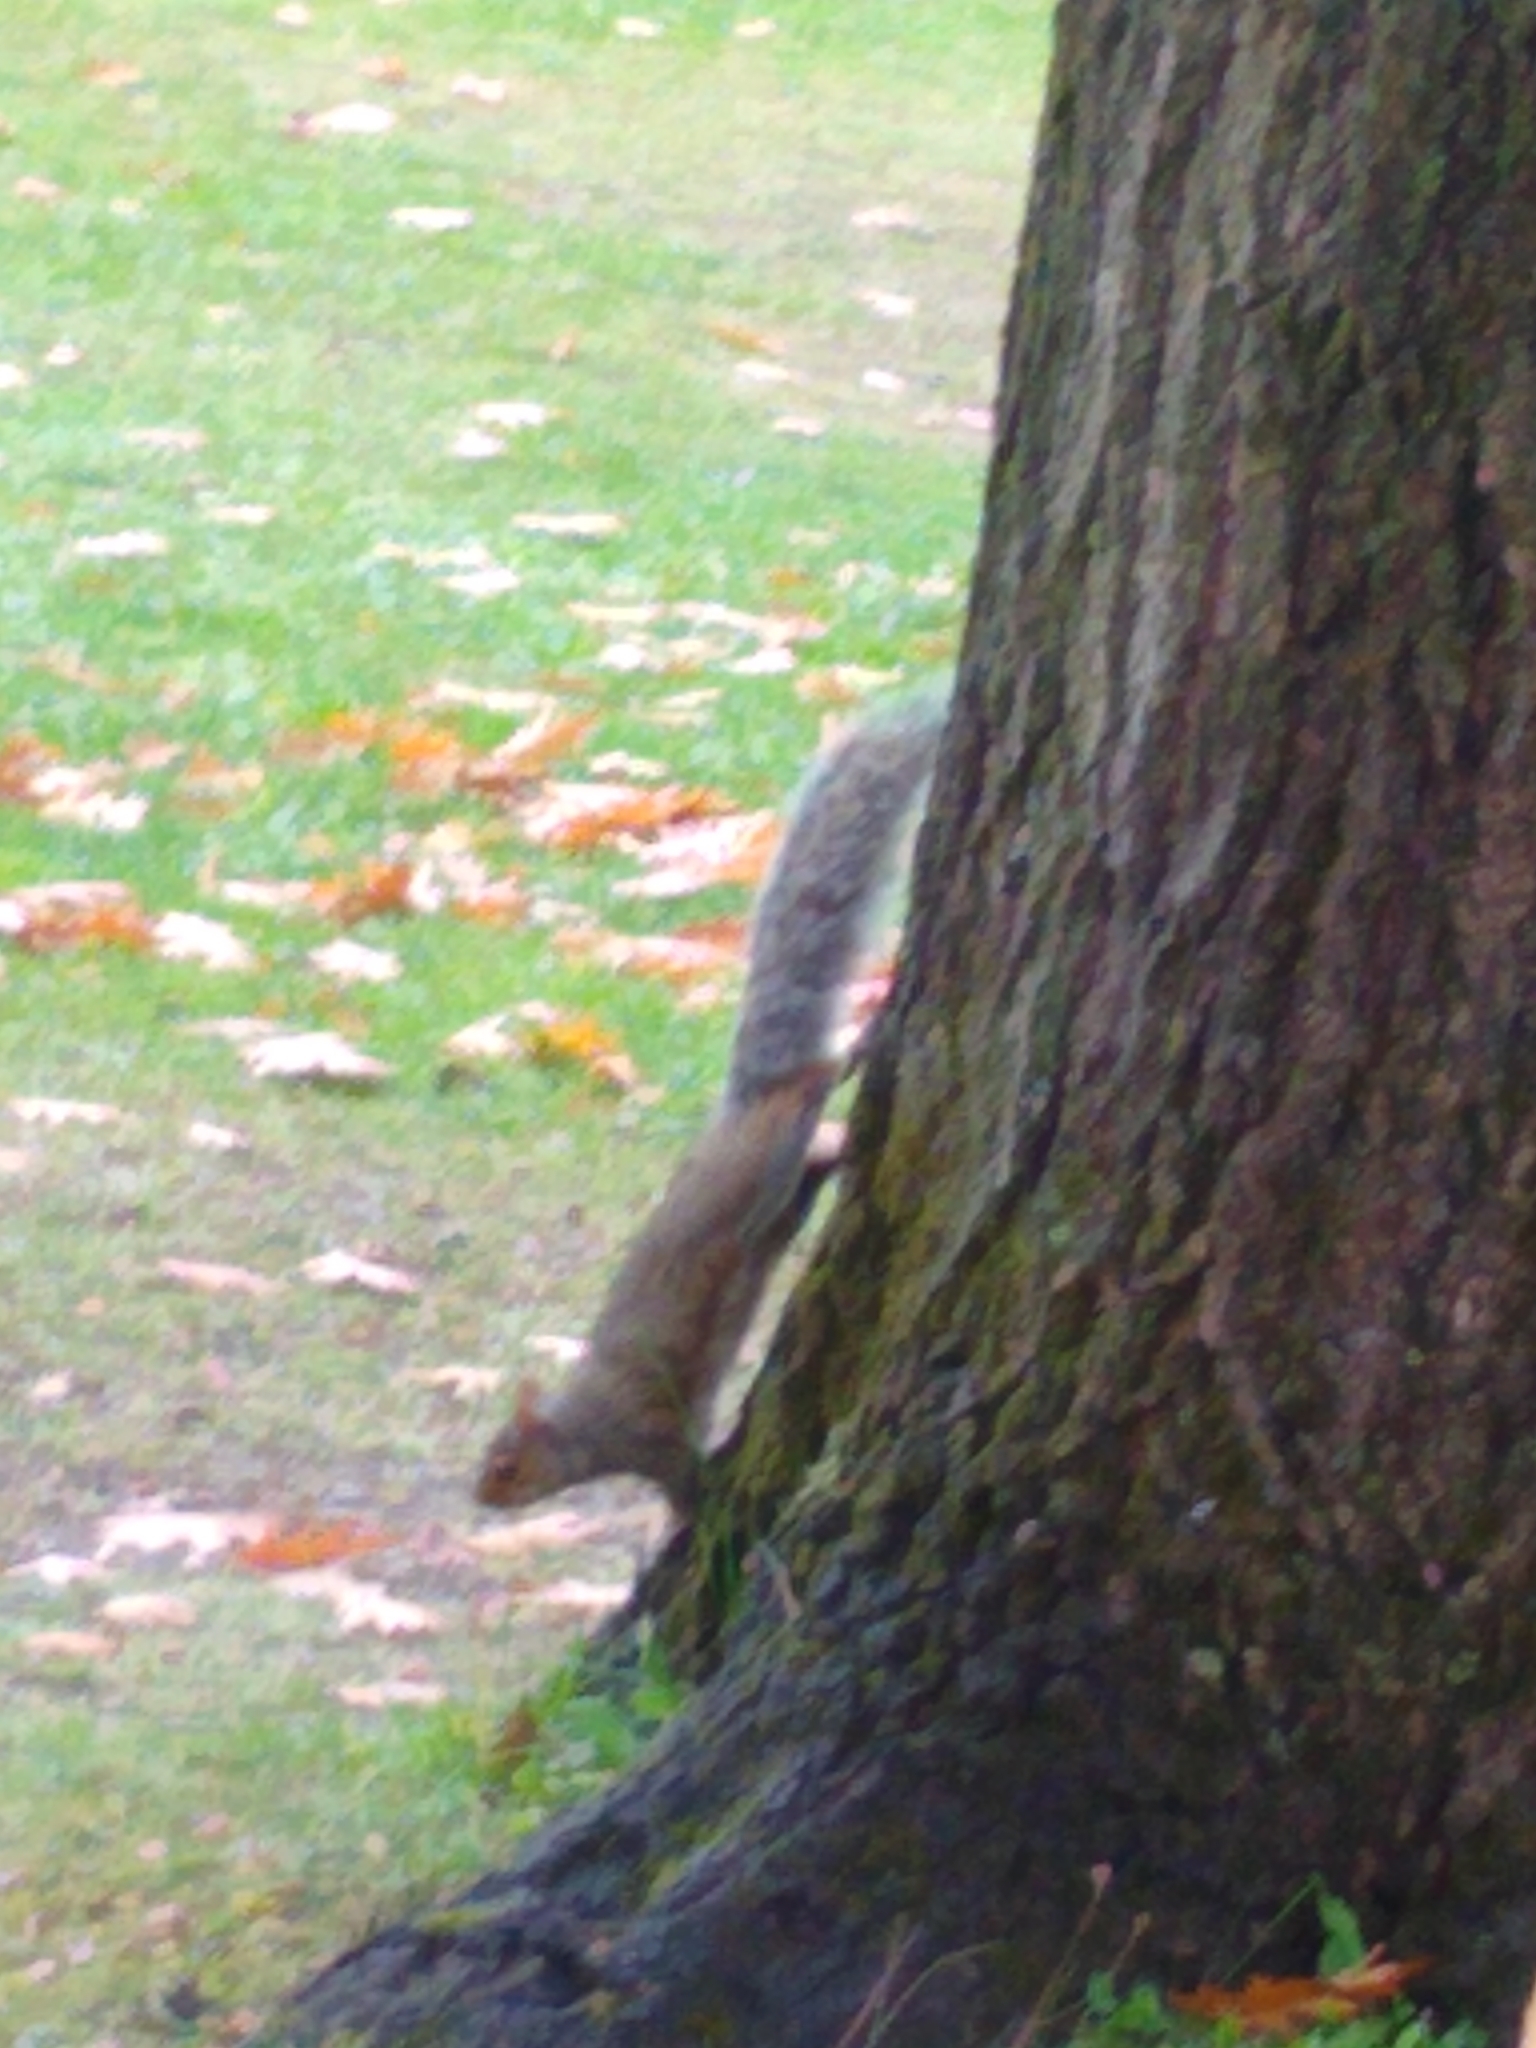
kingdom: Animalia
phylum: Chordata
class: Mammalia
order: Rodentia
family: Sciuridae
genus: Sciurus
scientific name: Sciurus carolinensis
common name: Eastern gray squirrel
